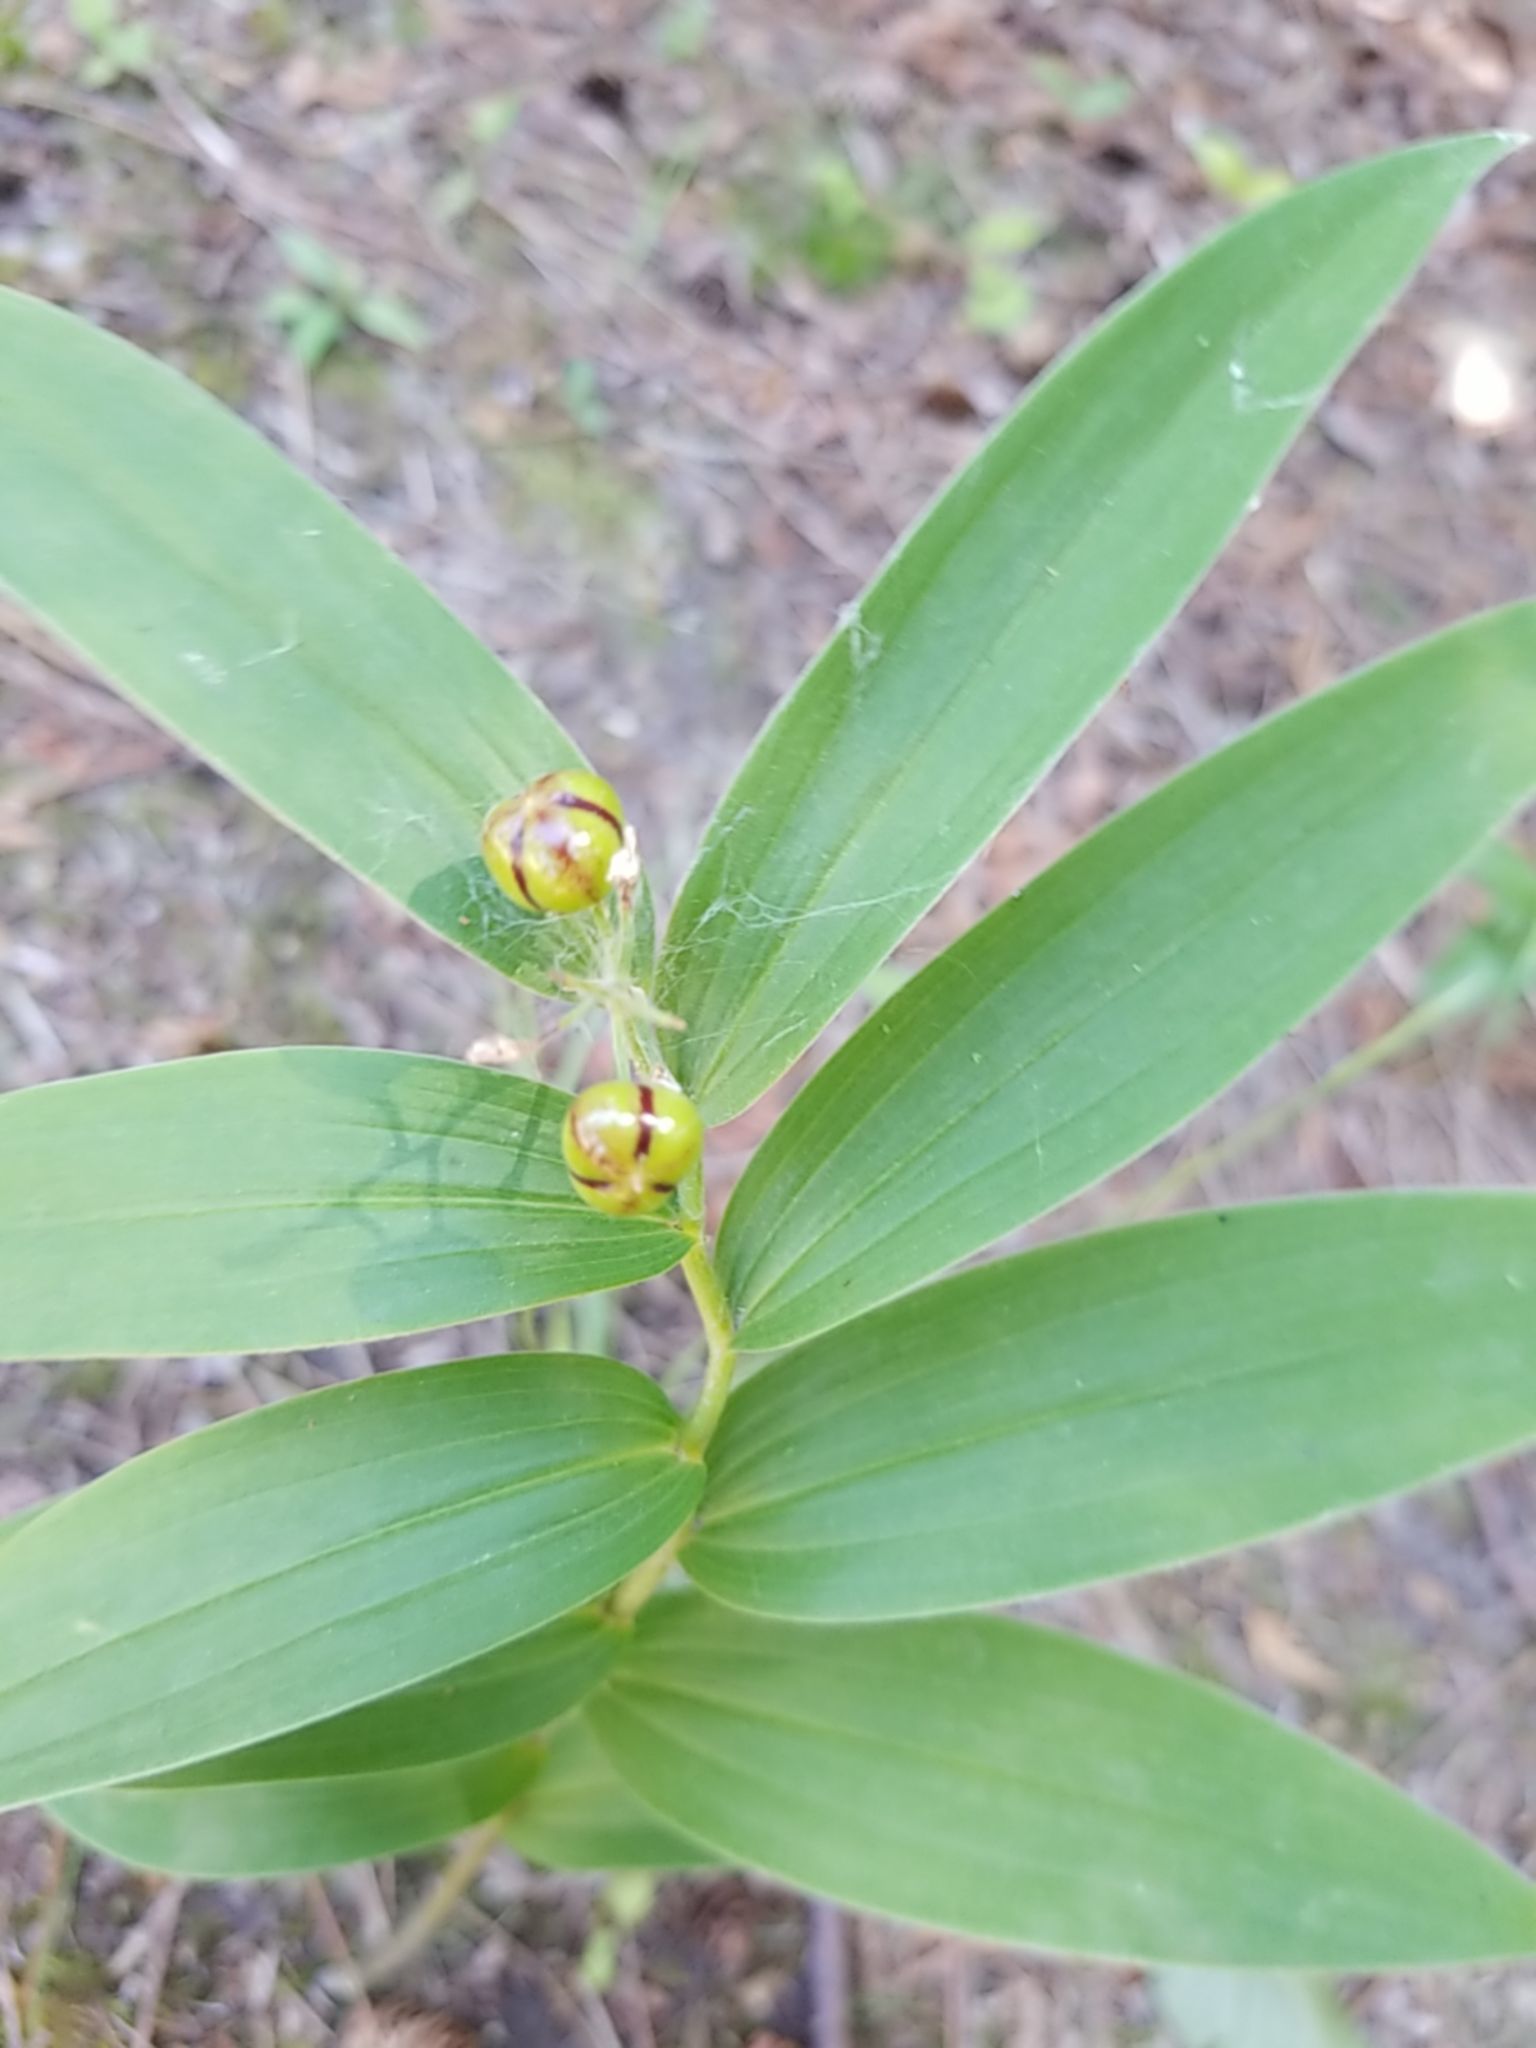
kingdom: Plantae
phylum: Tracheophyta
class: Liliopsida
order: Asparagales
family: Asparagaceae
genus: Maianthemum
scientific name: Maianthemum stellatum
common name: Little false solomon's seal
